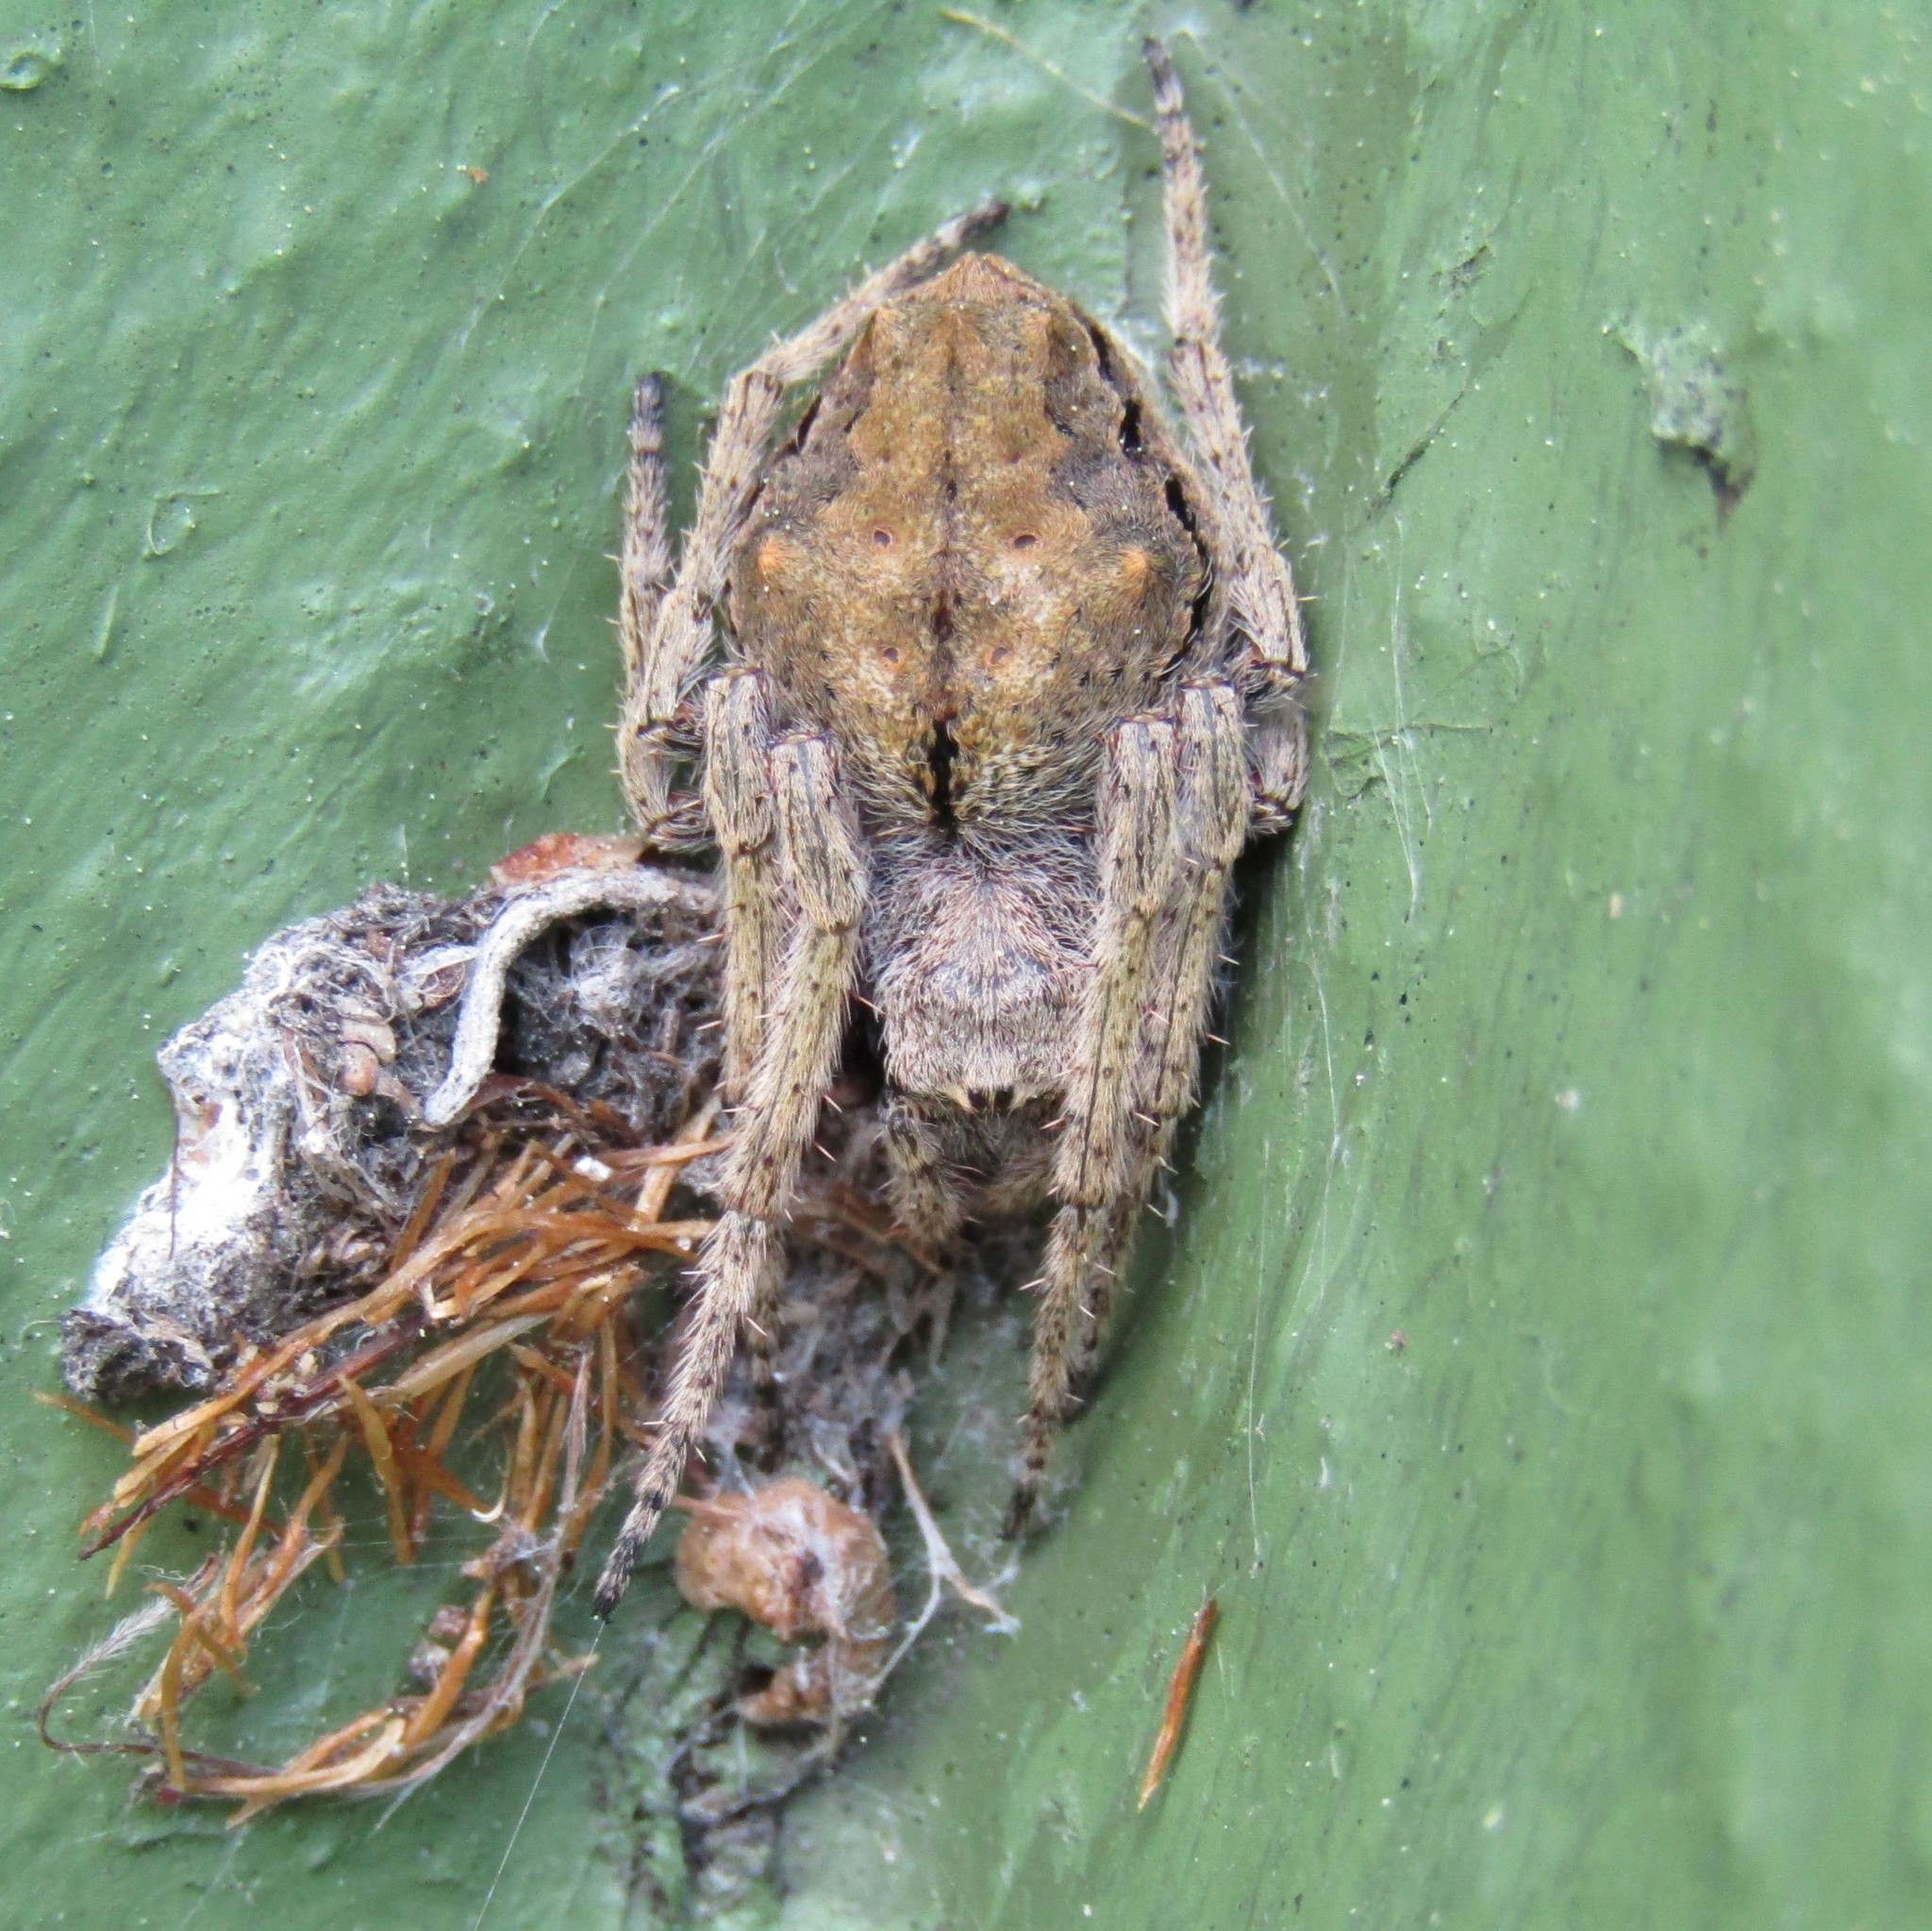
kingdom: Animalia
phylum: Arthropoda
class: Arachnida
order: Araneae
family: Araneidae
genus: Eriophora
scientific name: Eriophora pustulosa
